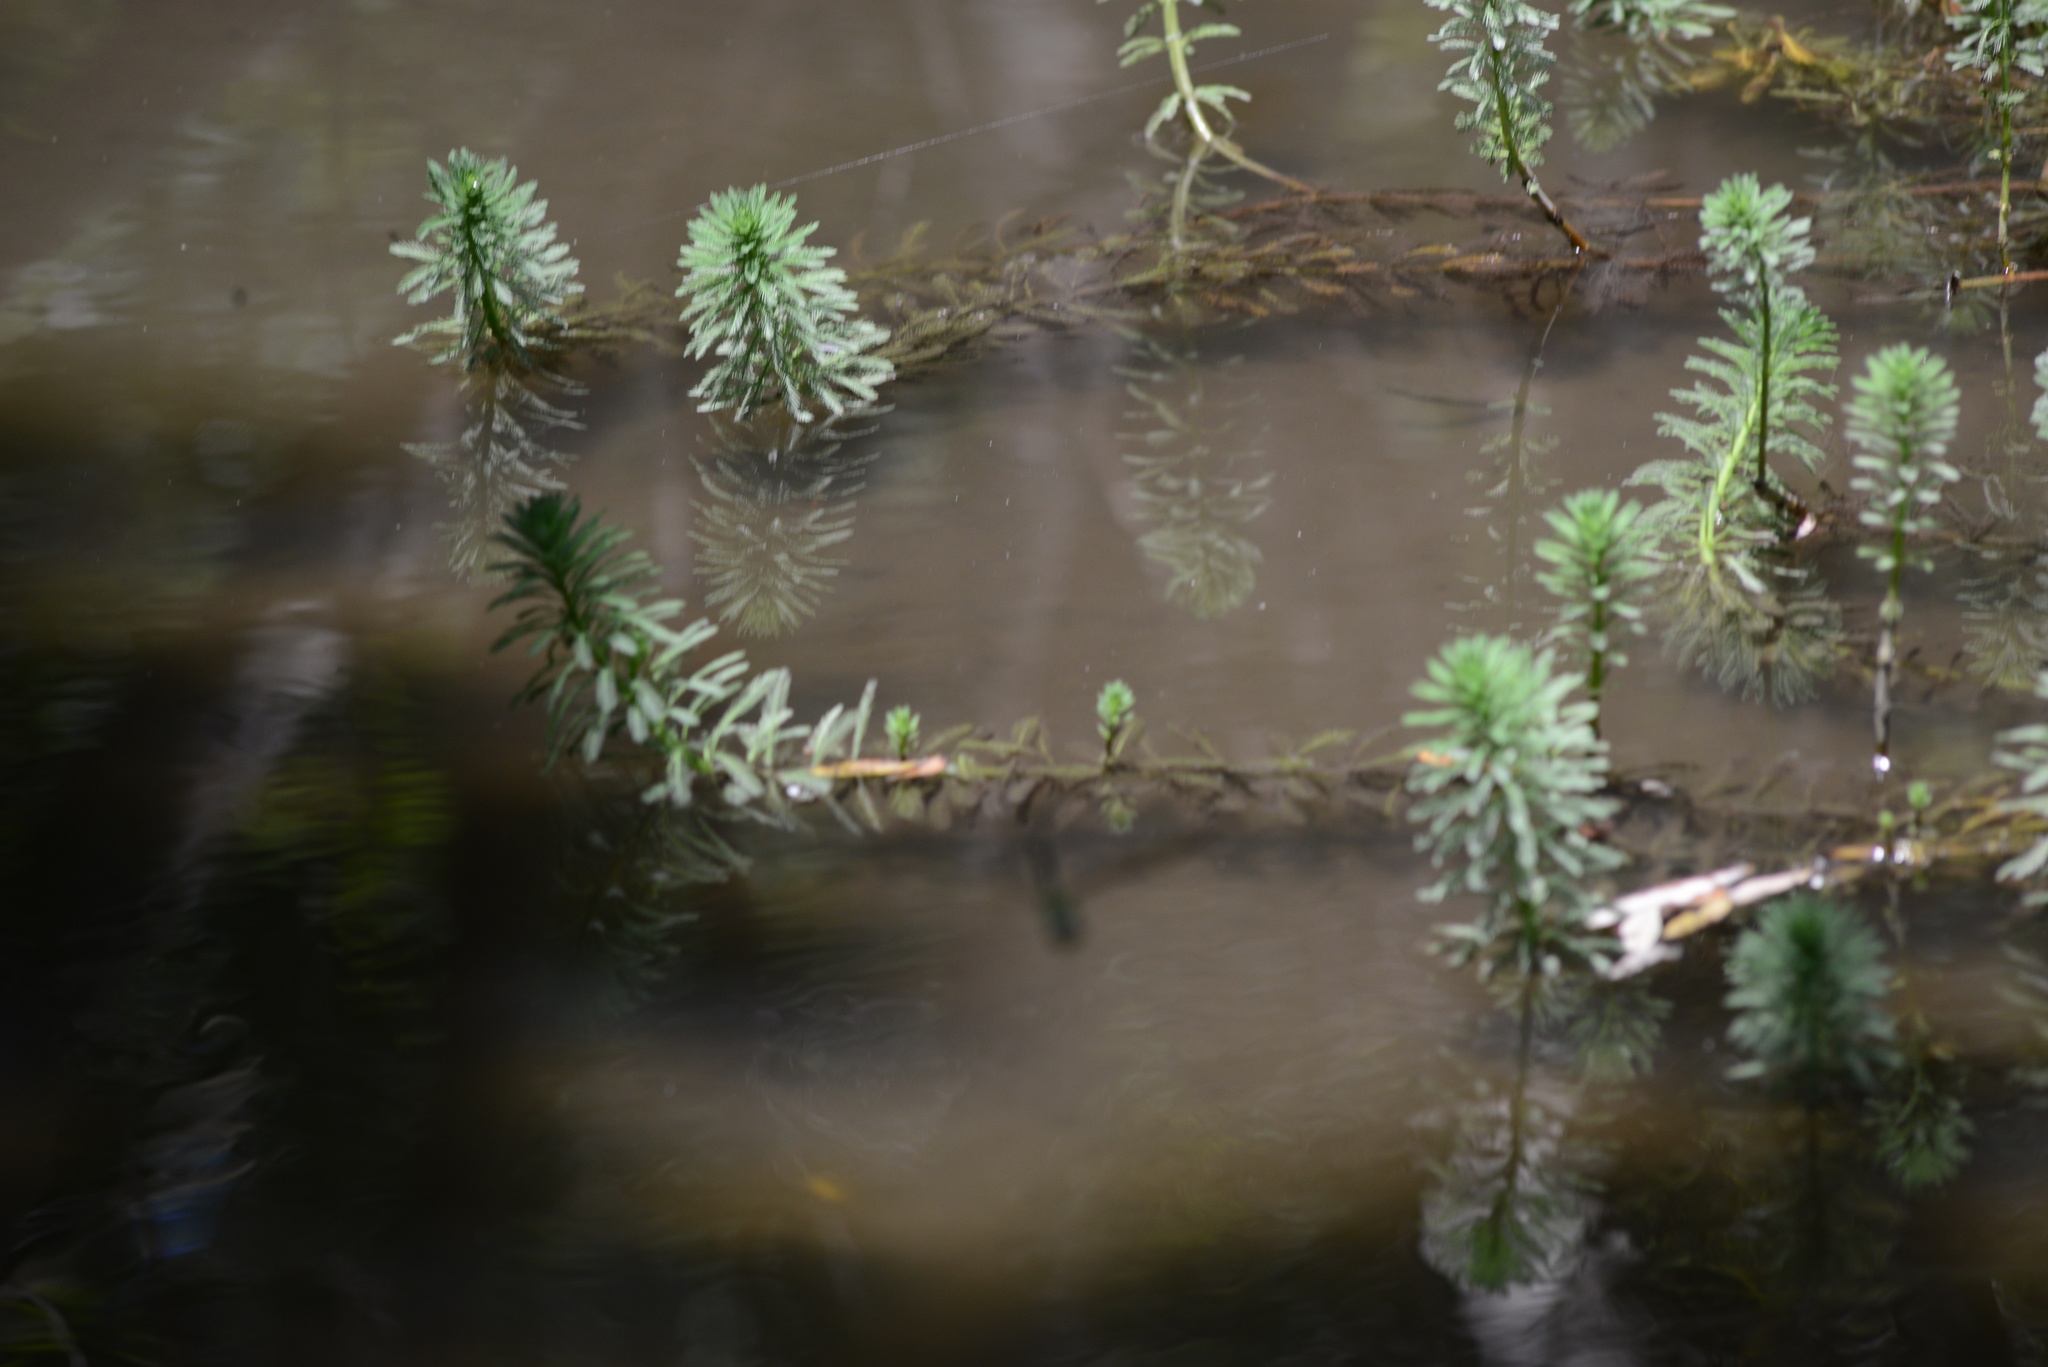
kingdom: Plantae
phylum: Tracheophyta
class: Magnoliopsida
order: Saxifragales
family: Haloragaceae
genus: Myriophyllum
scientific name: Myriophyllum aquaticum
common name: Parrot's feather
